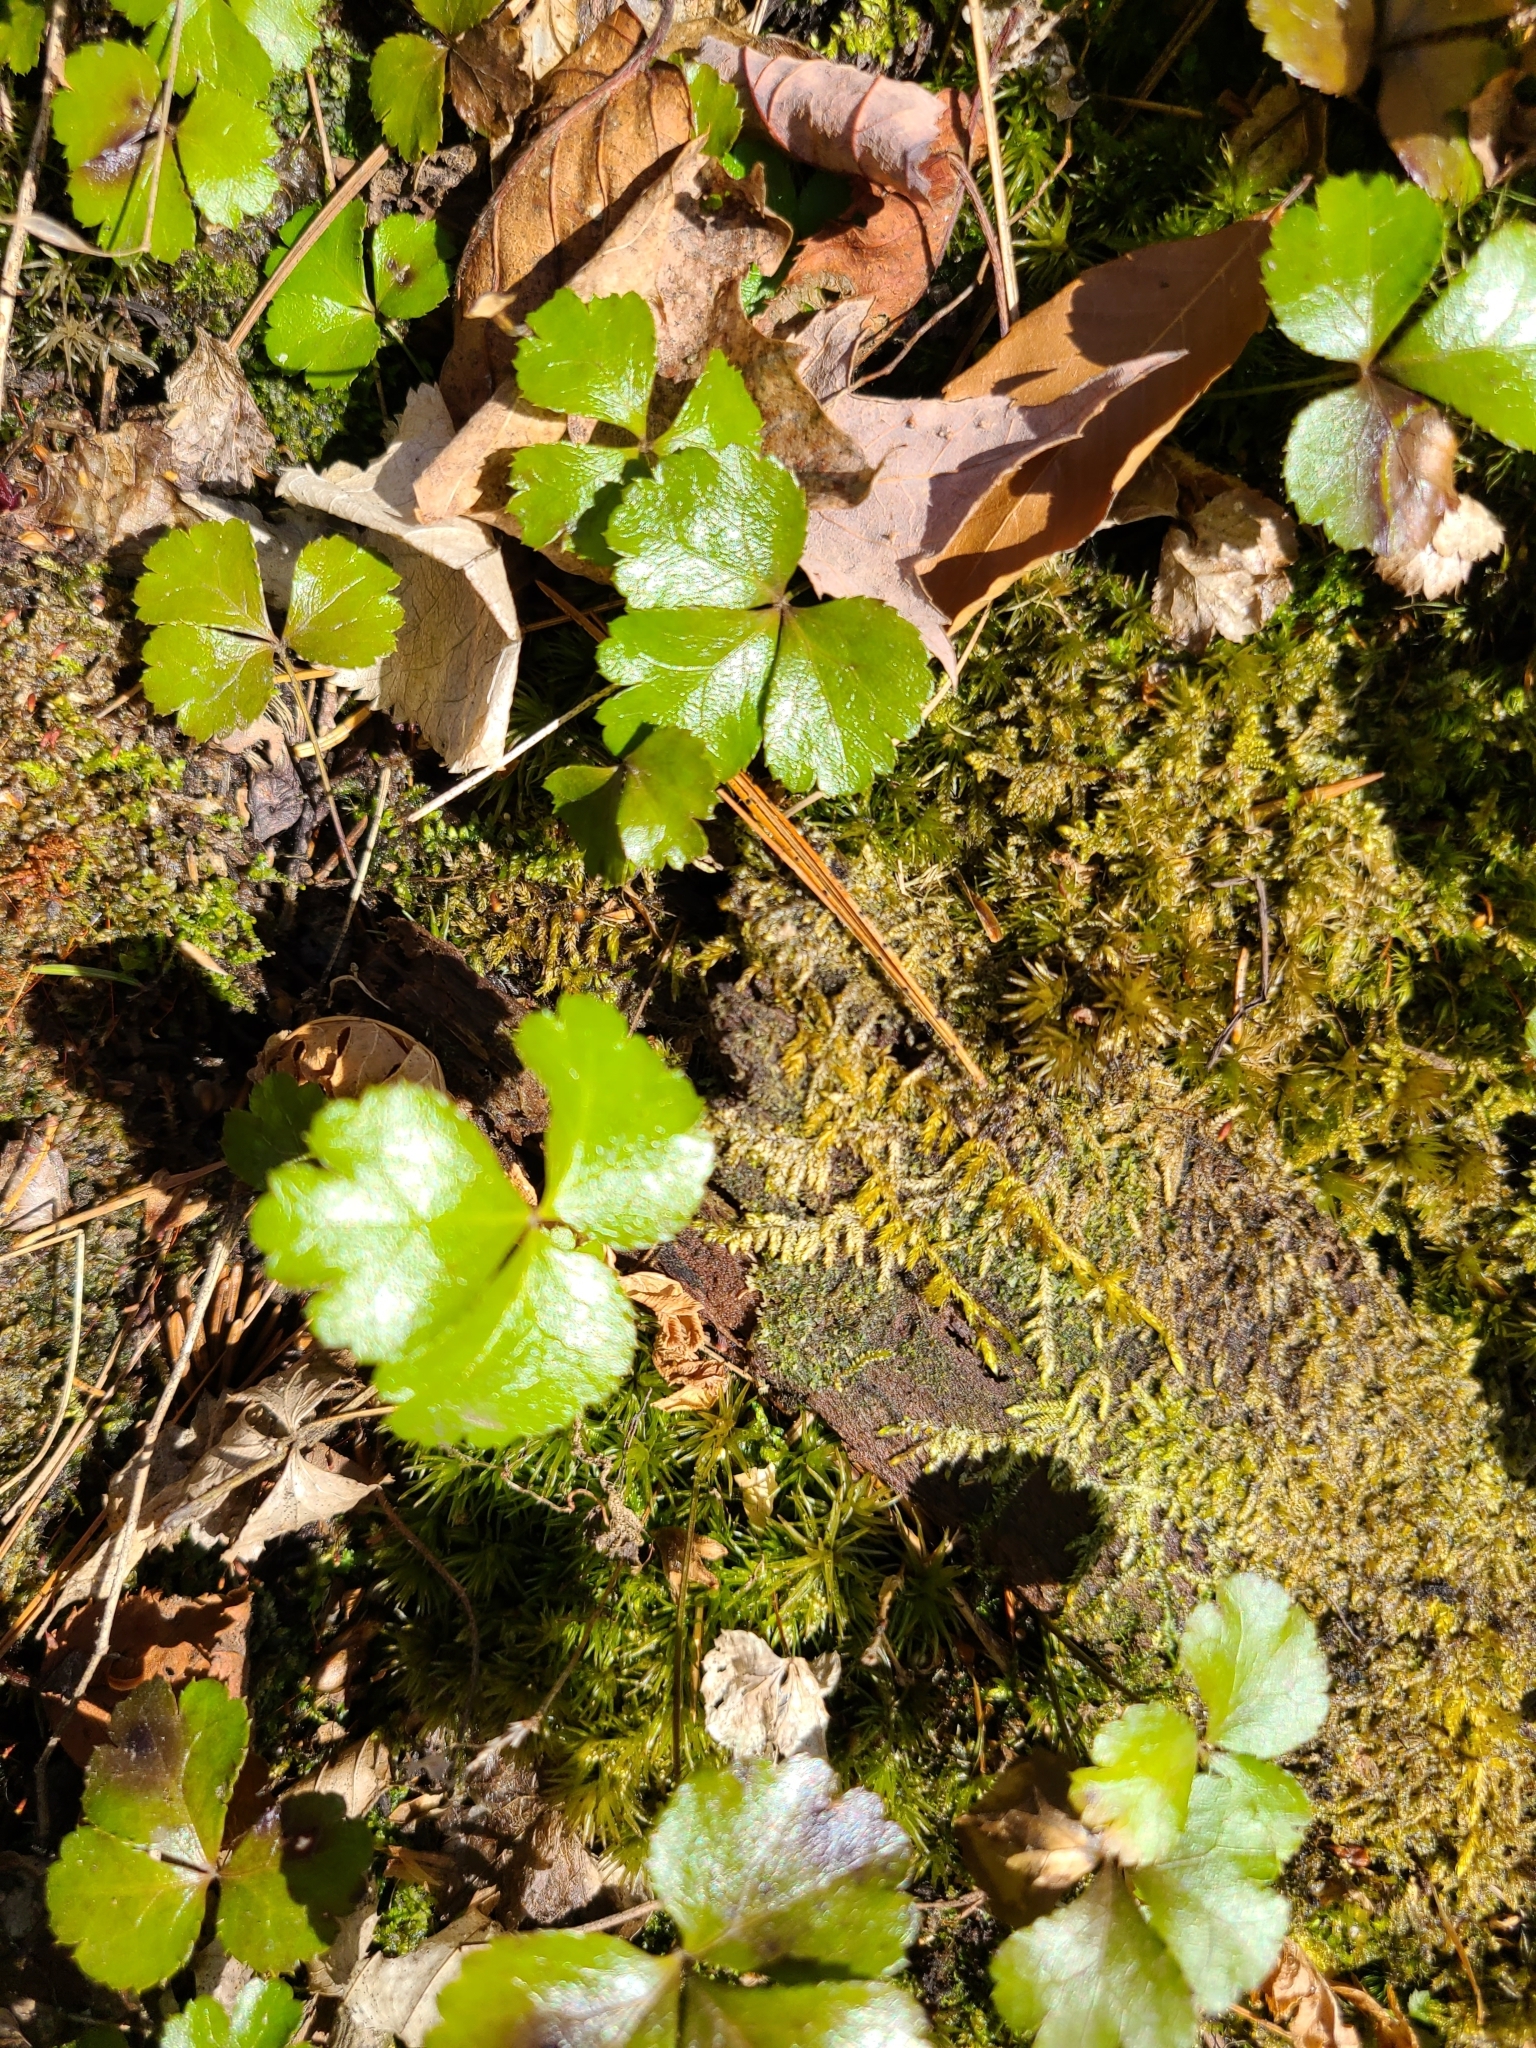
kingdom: Plantae
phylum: Tracheophyta
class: Magnoliopsida
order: Ranunculales
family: Ranunculaceae
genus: Coptis
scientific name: Coptis trifolia
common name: Canker-root
